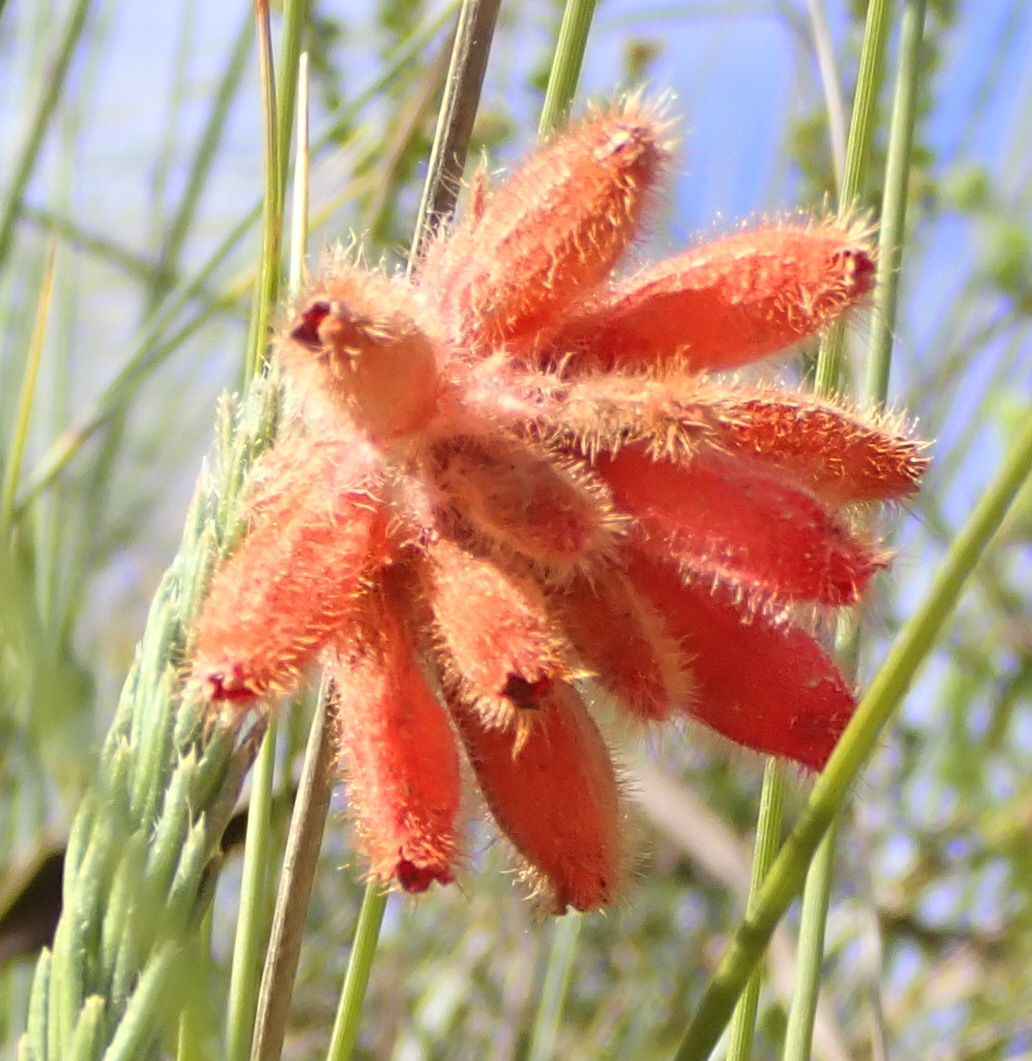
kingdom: Plantae
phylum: Tracheophyta
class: Magnoliopsida
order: Ericales
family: Ericaceae
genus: Erica
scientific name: Erica cerinthoides
